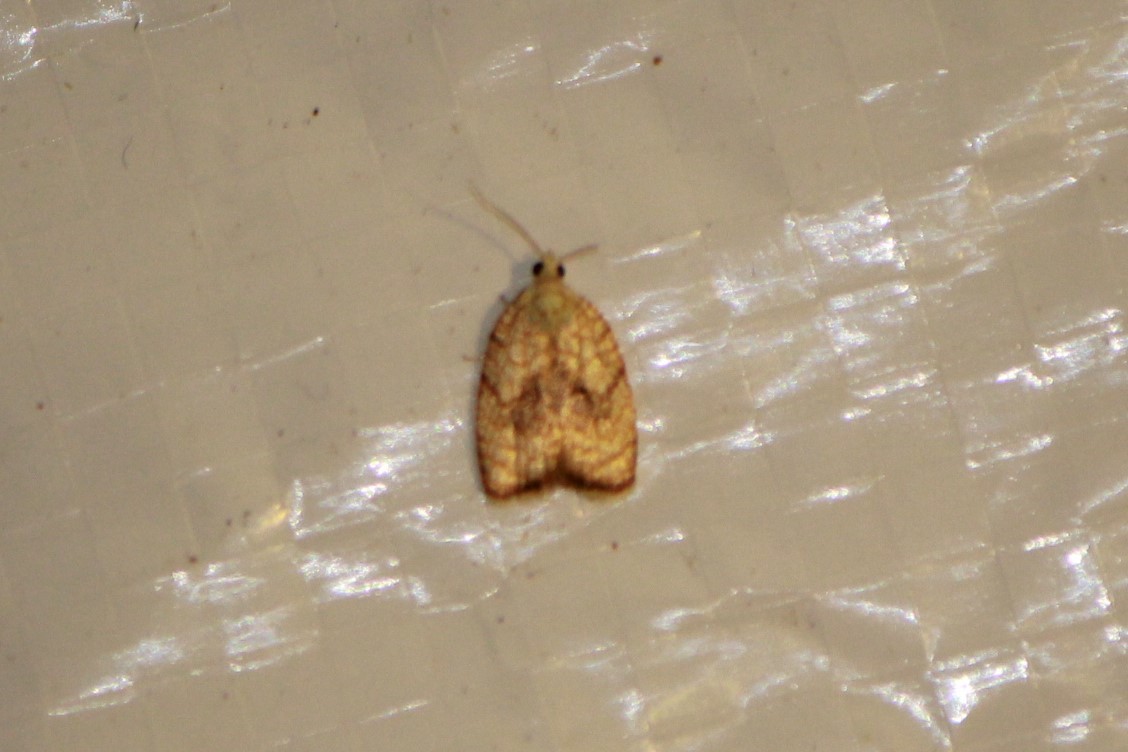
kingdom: Animalia
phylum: Arthropoda
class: Insecta
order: Lepidoptera
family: Tortricidae
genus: Acleris
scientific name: Acleris forsskaleana
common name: Maple button
